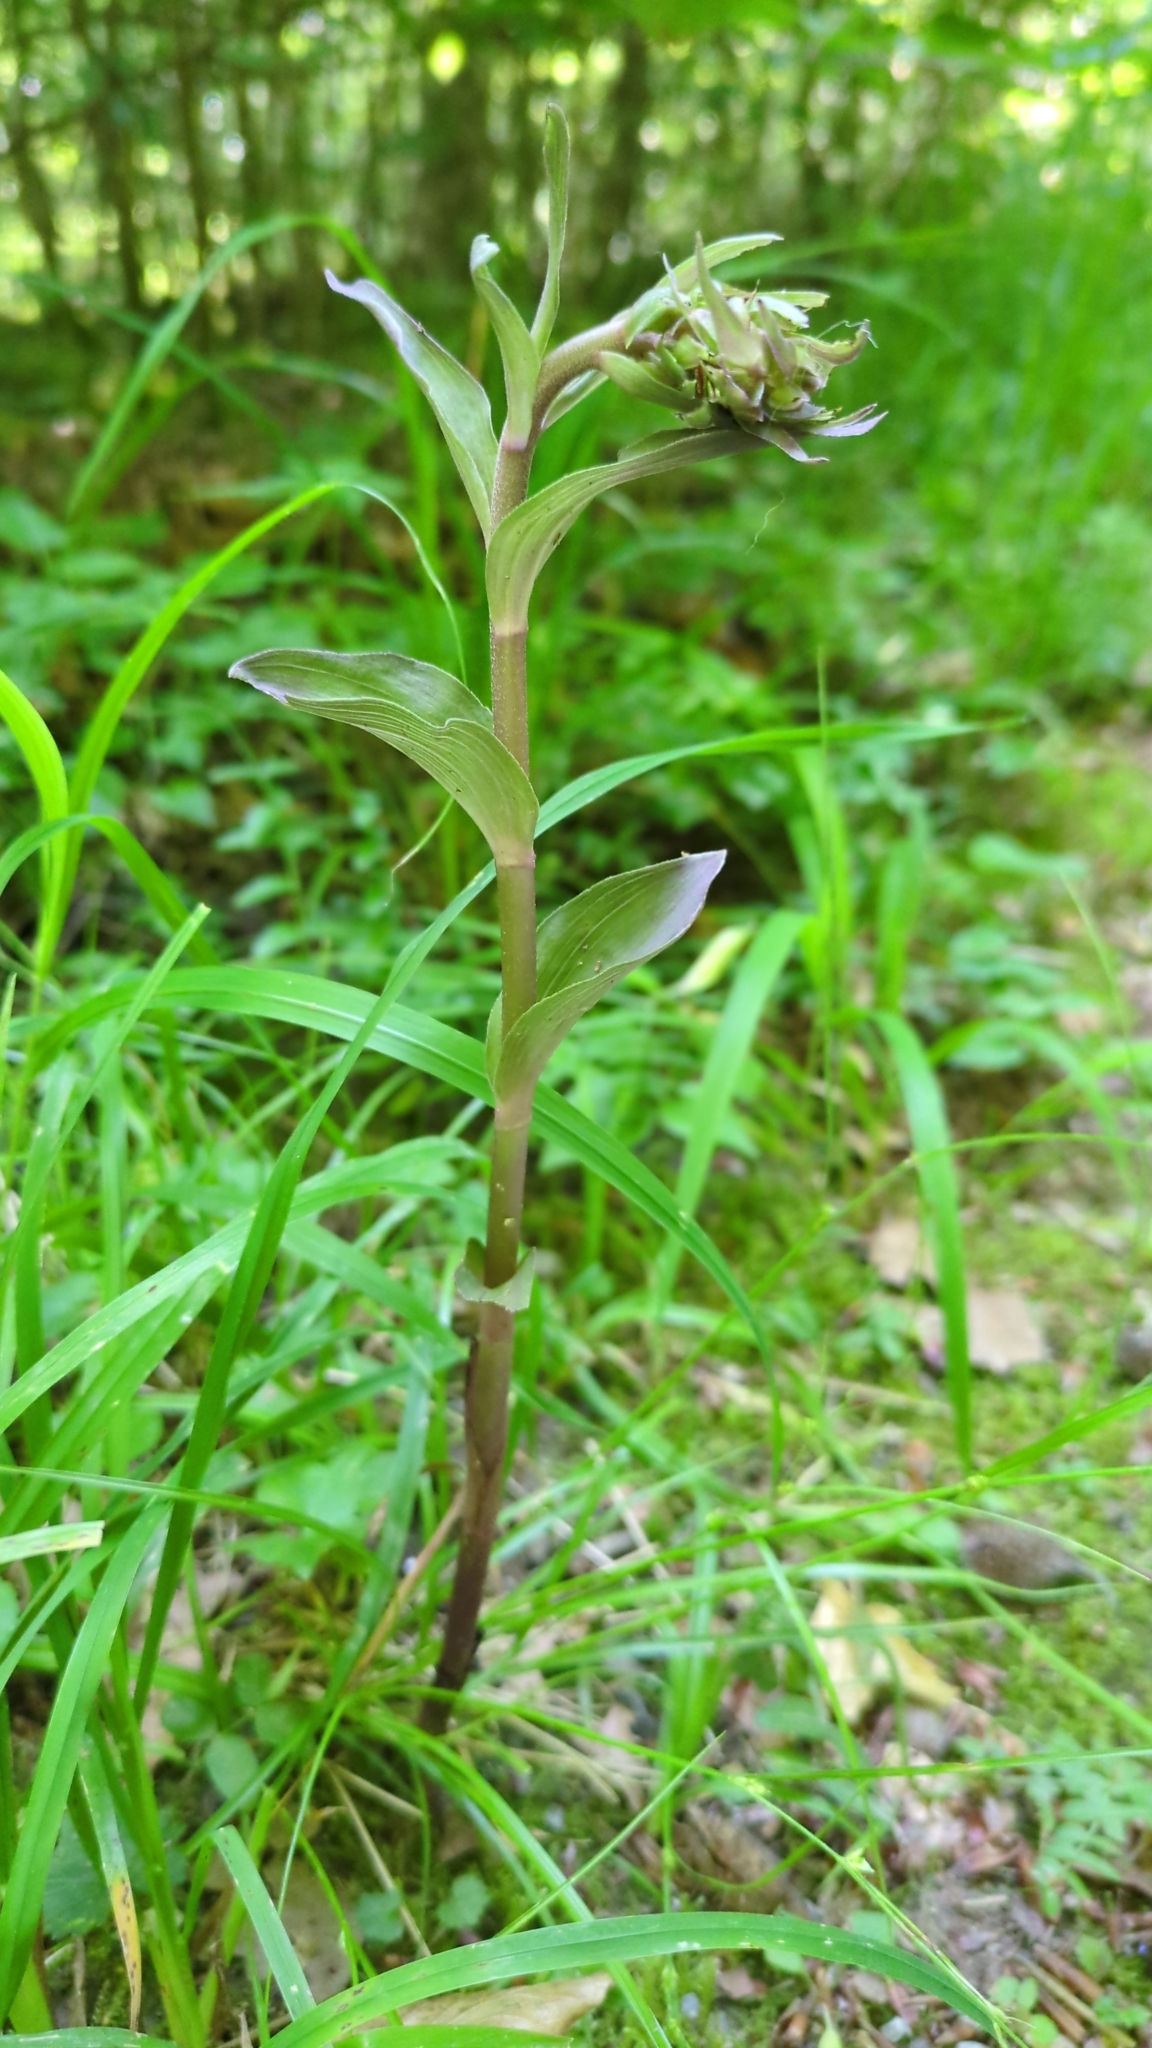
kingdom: Plantae
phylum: Tracheophyta
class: Liliopsida
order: Asparagales
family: Orchidaceae
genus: Epipactis
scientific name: Epipactis purpurata
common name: Violet helleborine
